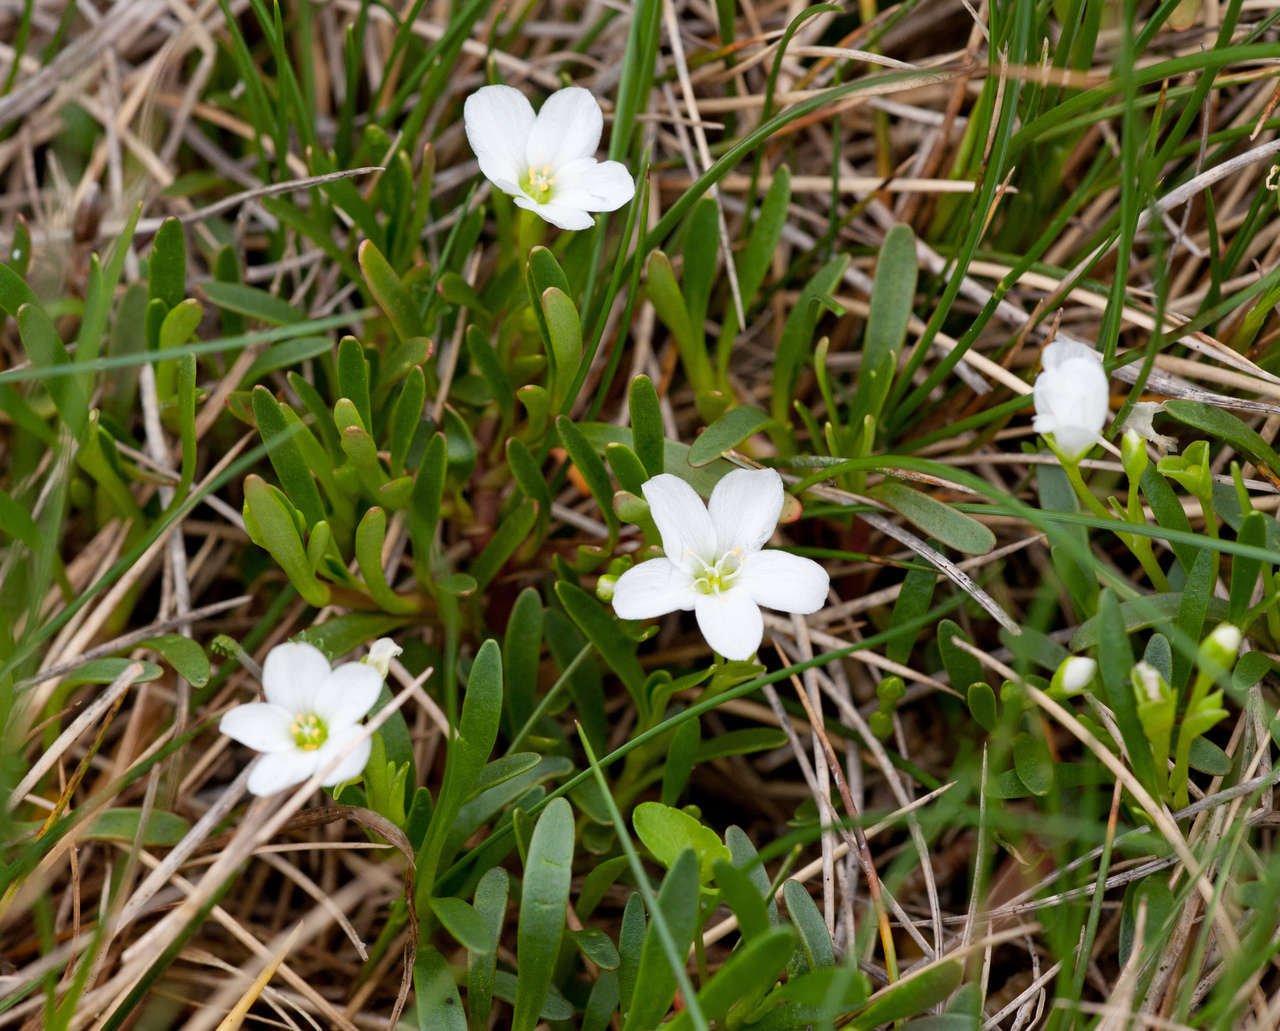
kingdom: Plantae
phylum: Tracheophyta
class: Magnoliopsida
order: Caryophyllales
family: Montiaceae
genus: Montia
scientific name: Montia australasica
